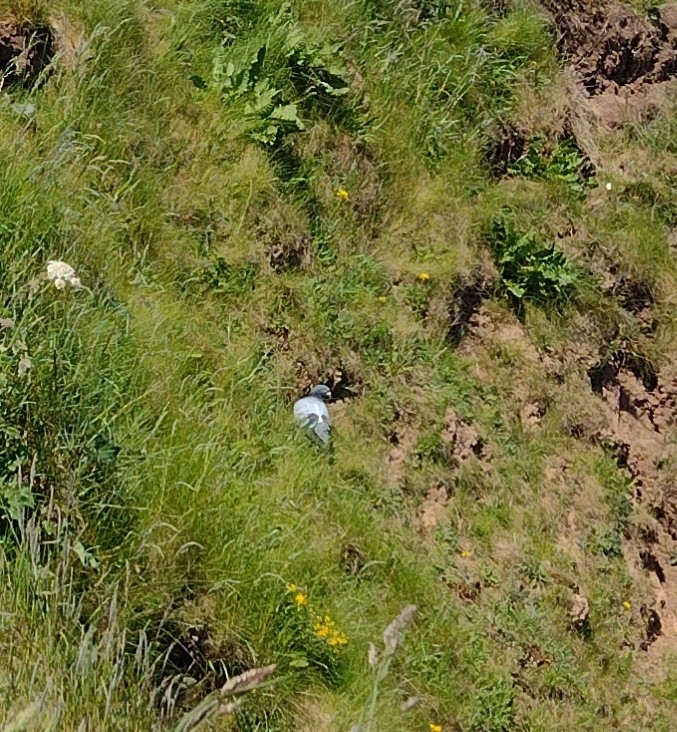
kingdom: Animalia
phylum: Chordata
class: Aves
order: Columbiformes
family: Columbidae
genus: Columba
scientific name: Columba livia
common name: Rock pigeon
